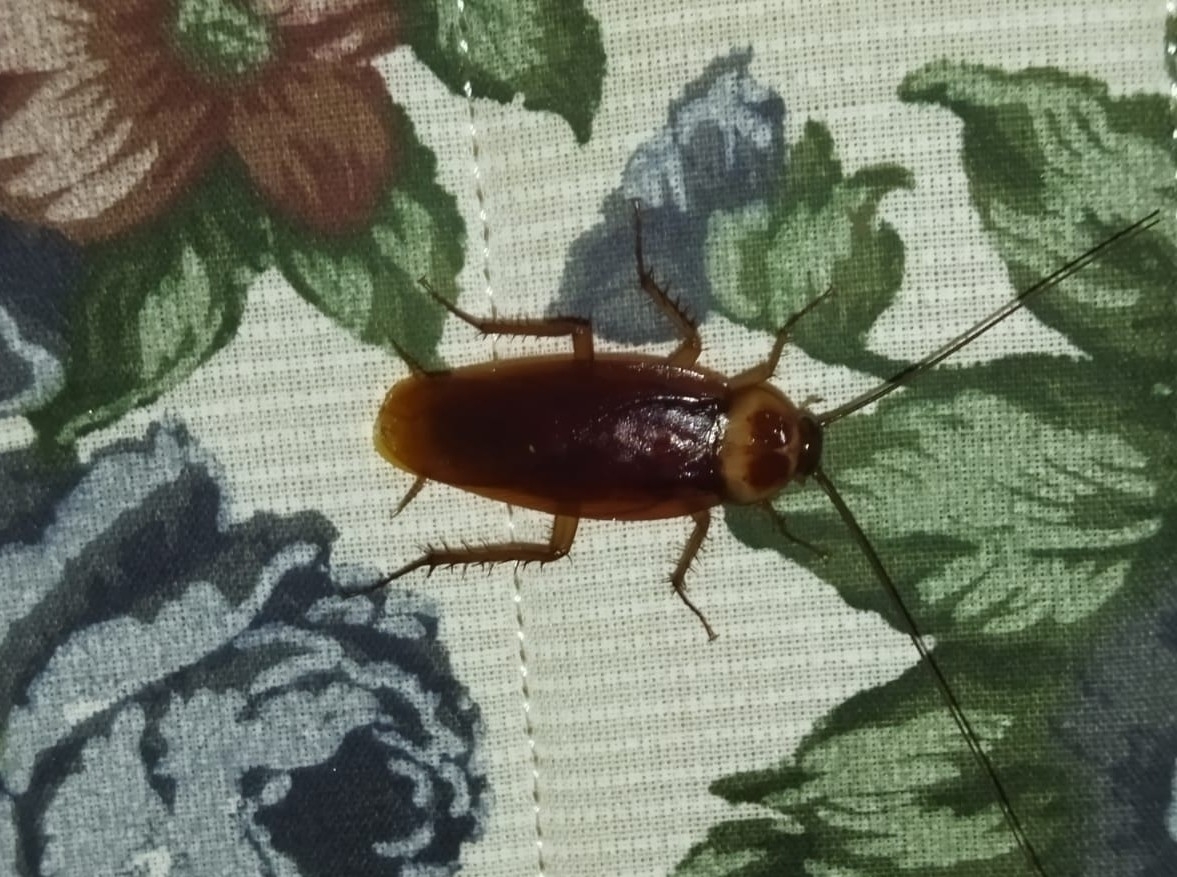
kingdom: Animalia
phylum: Arthropoda
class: Insecta
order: Blattodea
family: Blattidae
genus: Periplaneta
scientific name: Periplaneta americana
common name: American cockroach
